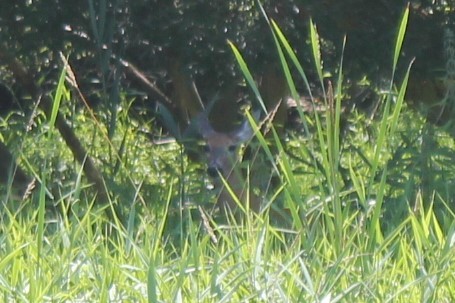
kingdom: Animalia
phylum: Chordata
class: Mammalia
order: Artiodactyla
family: Cervidae
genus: Odocoileus
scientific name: Odocoileus virginianus
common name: White-tailed deer
